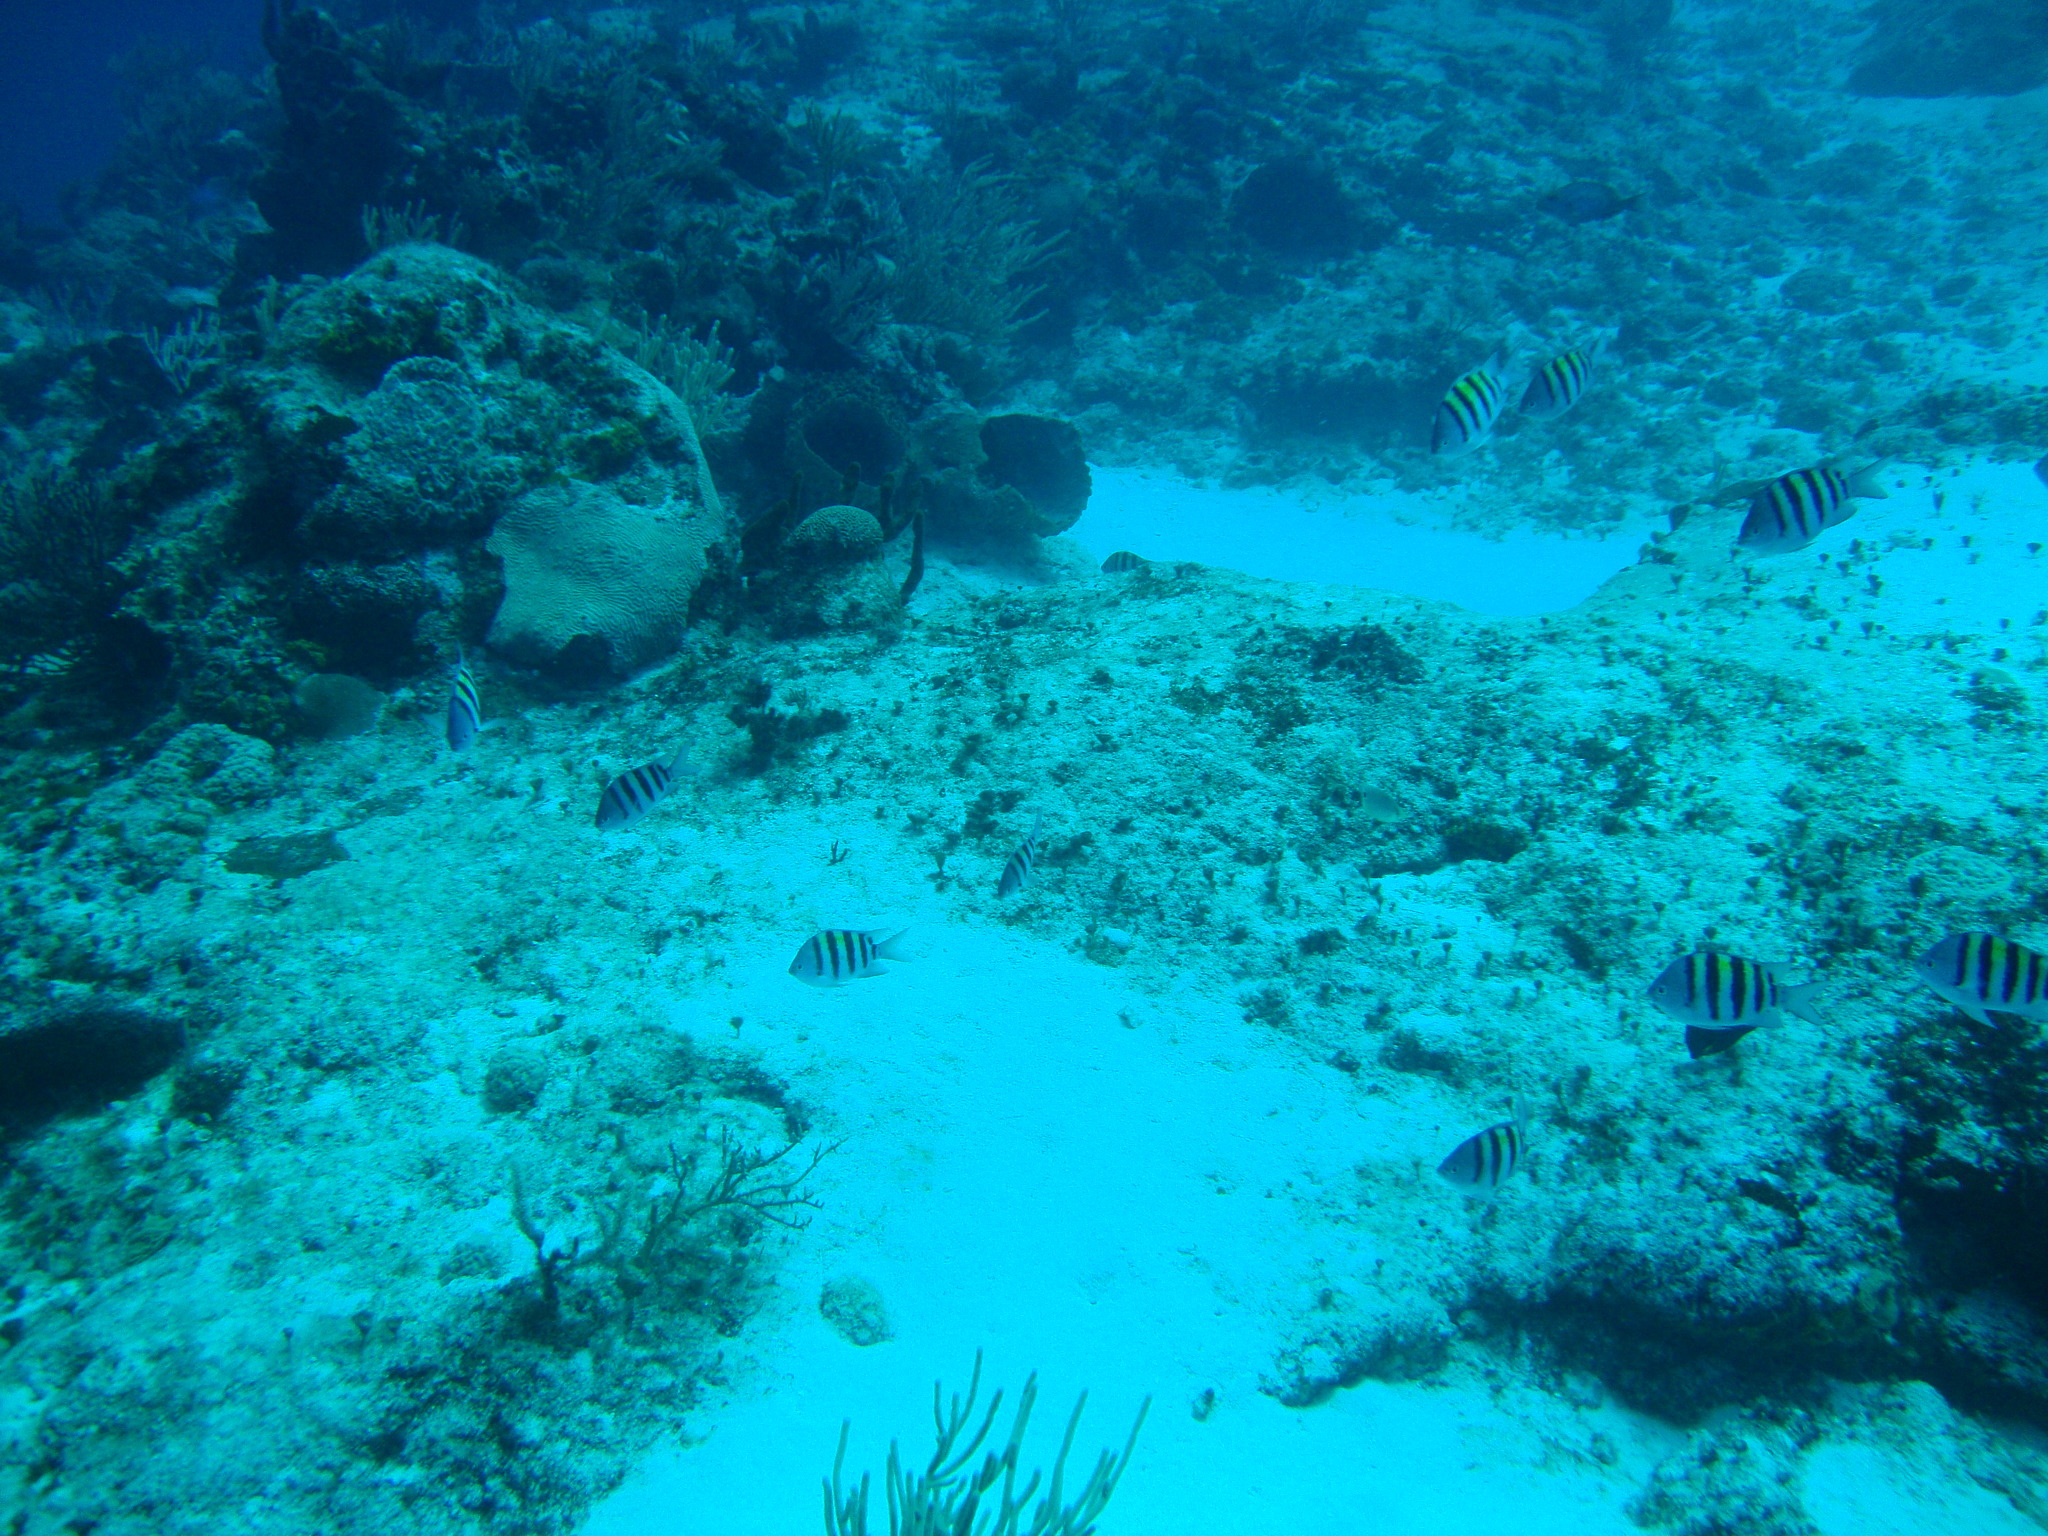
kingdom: Animalia
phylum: Chordata
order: Perciformes
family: Pomacentridae
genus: Abudefduf
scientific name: Abudefduf saxatilis
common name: Sergeant major
